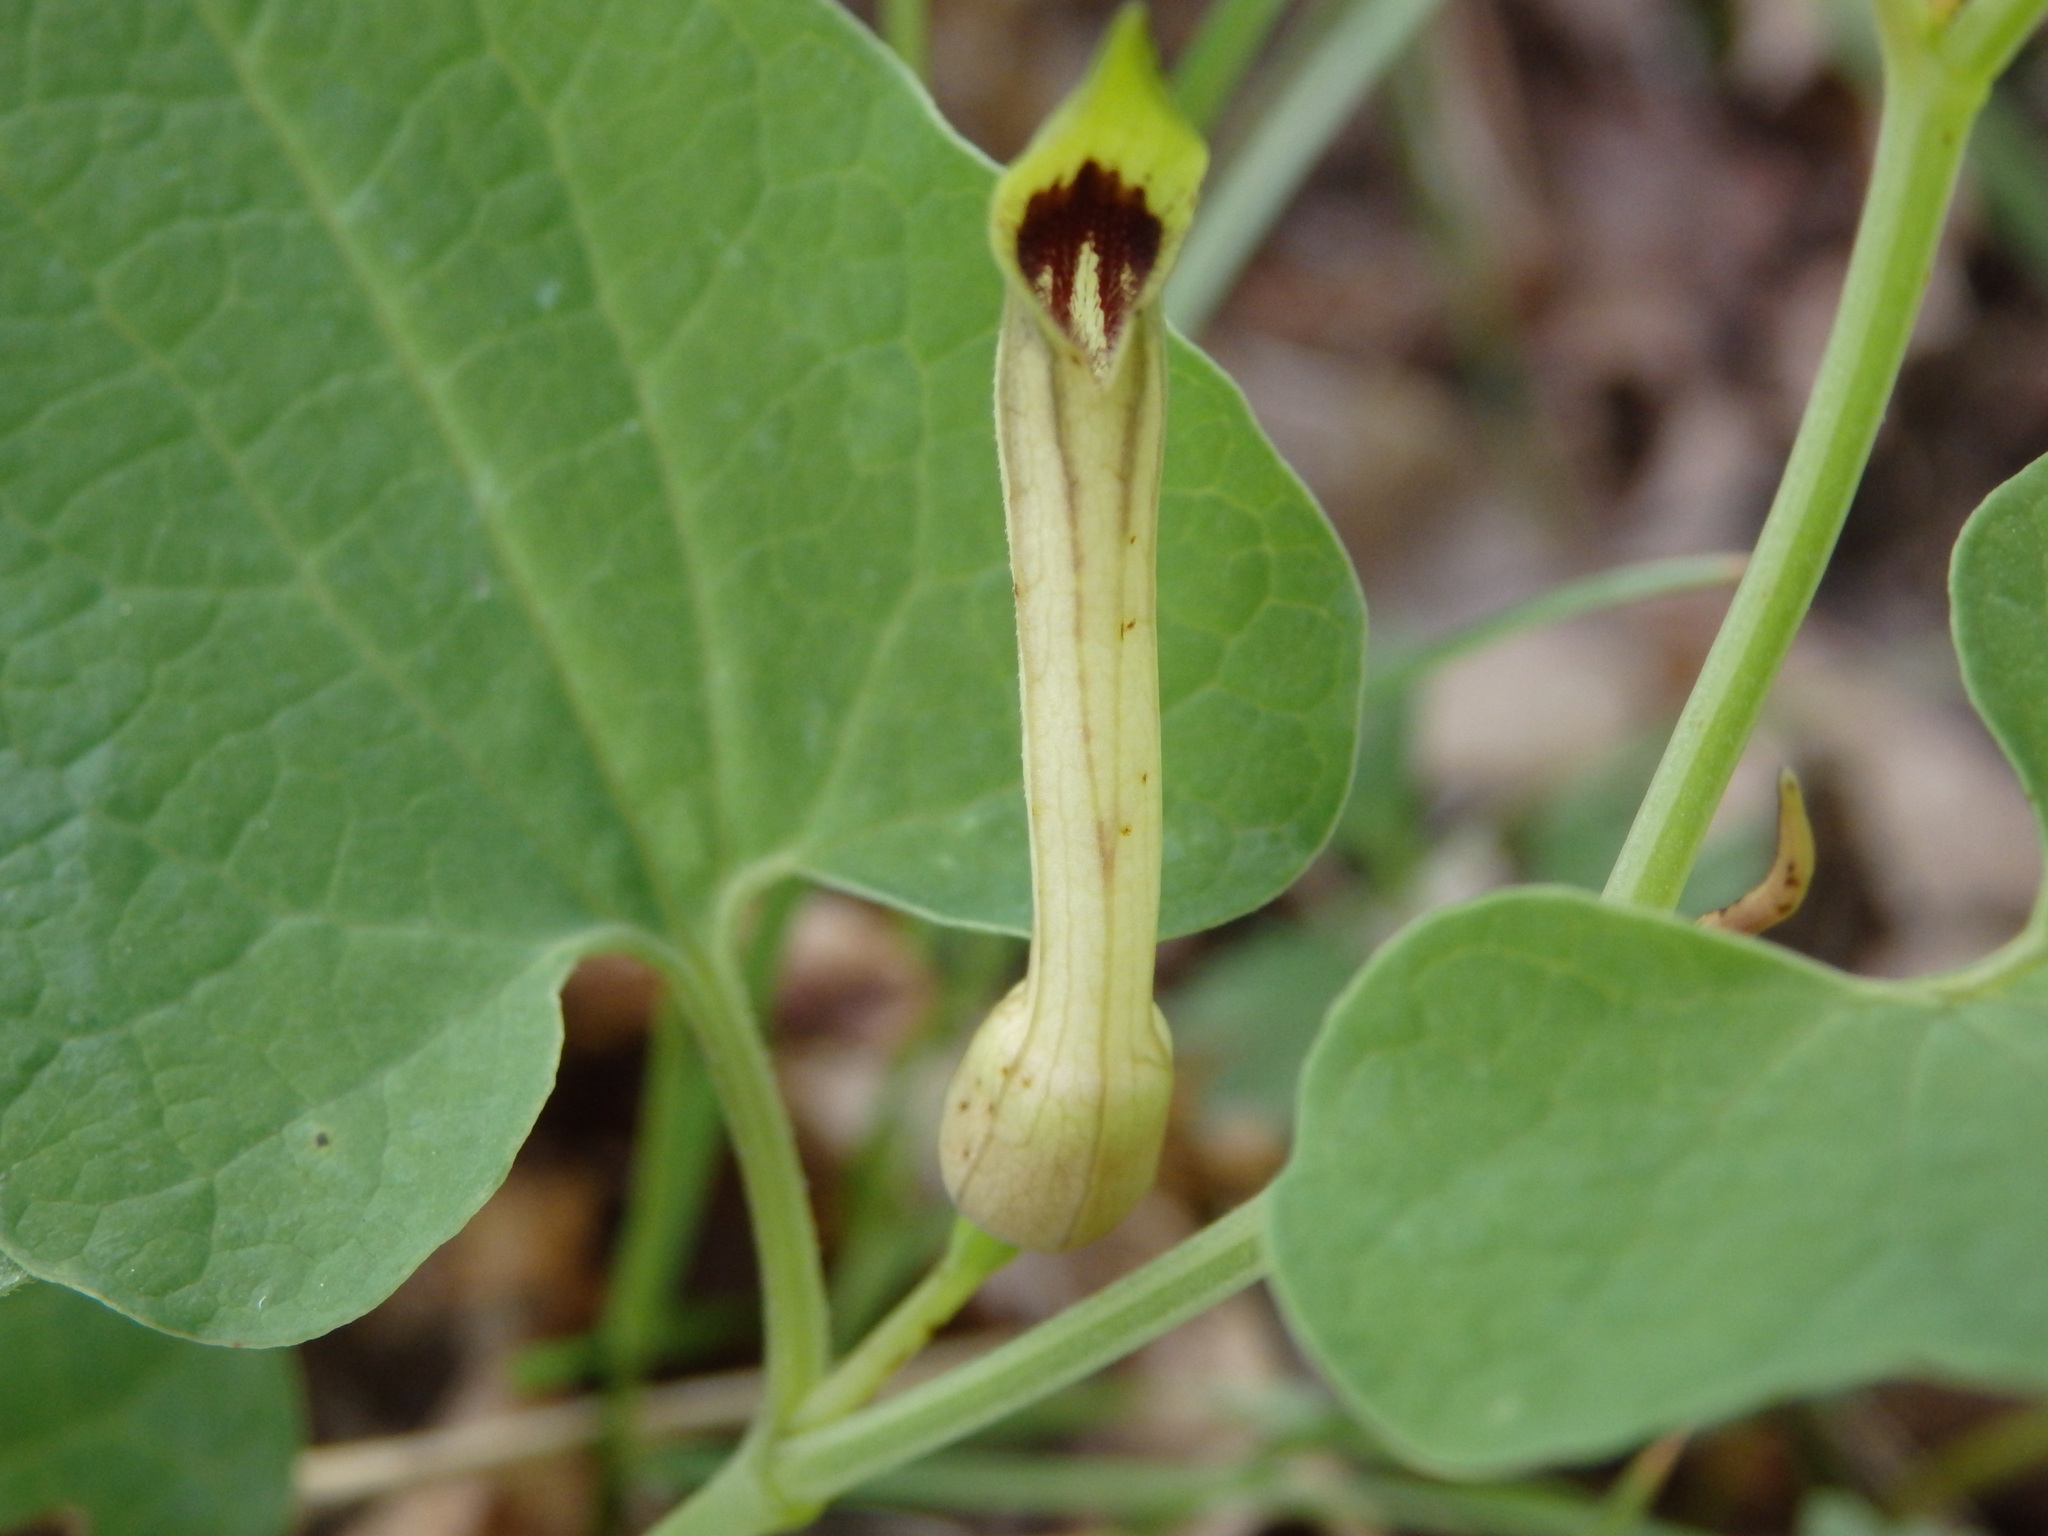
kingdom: Plantae
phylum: Tracheophyta
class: Magnoliopsida
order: Piperales
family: Aristolochiaceae
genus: Aristolochia
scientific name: Aristolochia paucinervis
